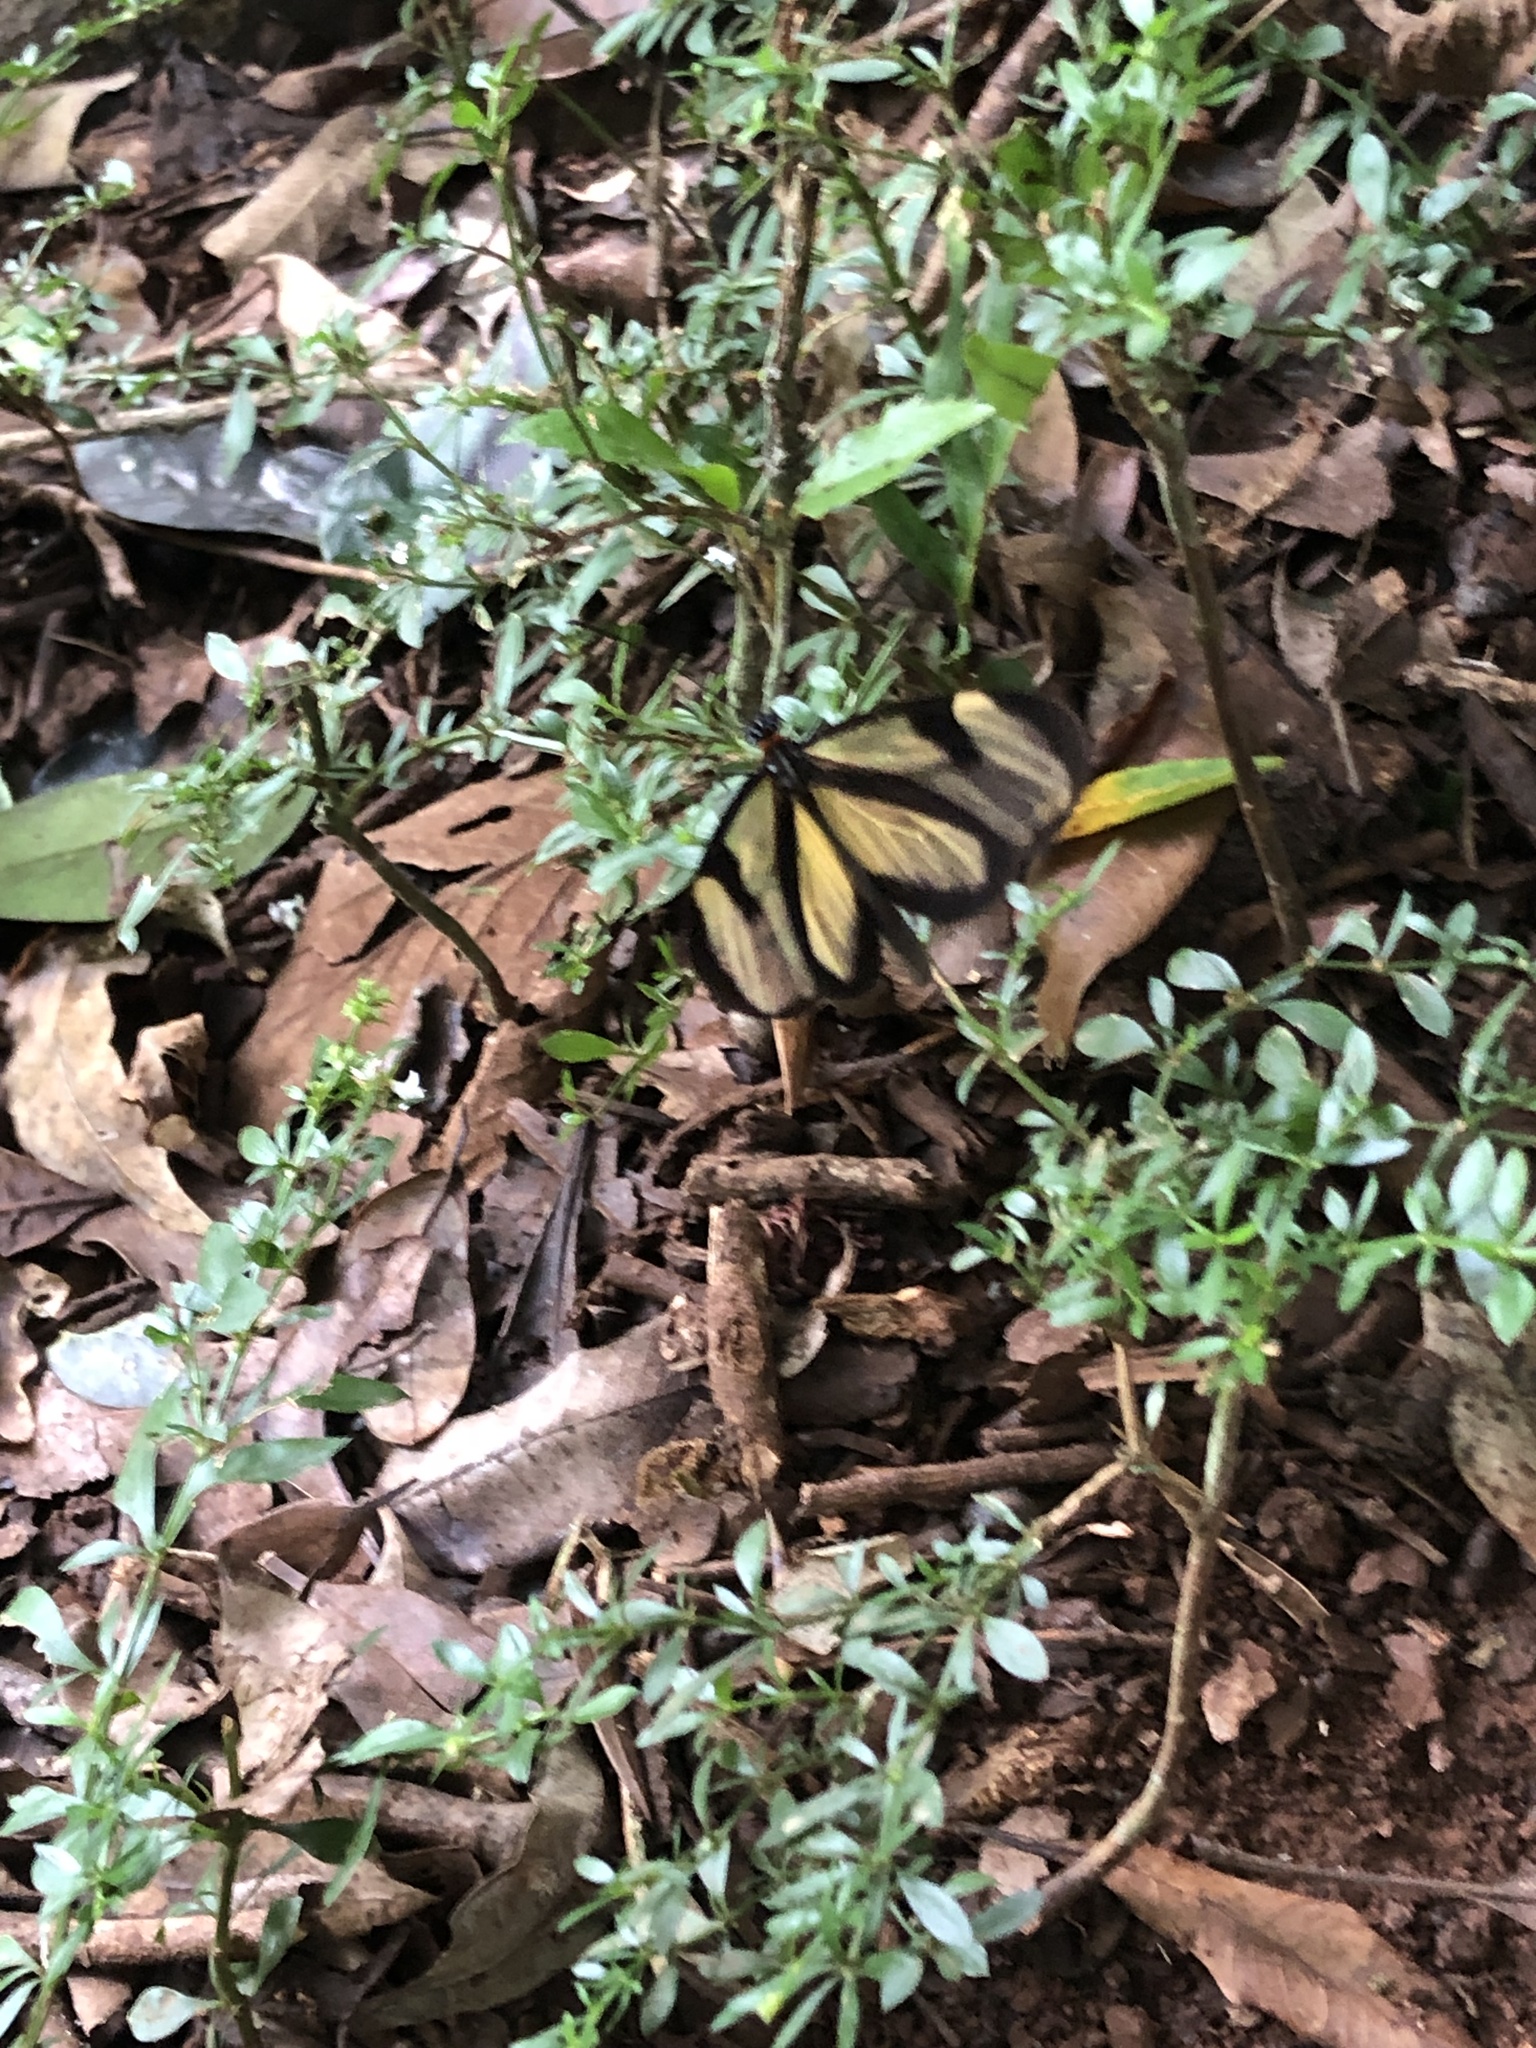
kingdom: Animalia
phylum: Arthropoda
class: Insecta
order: Lepidoptera
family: Nymphalidae
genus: Epityches
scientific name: Epityches eupompe
